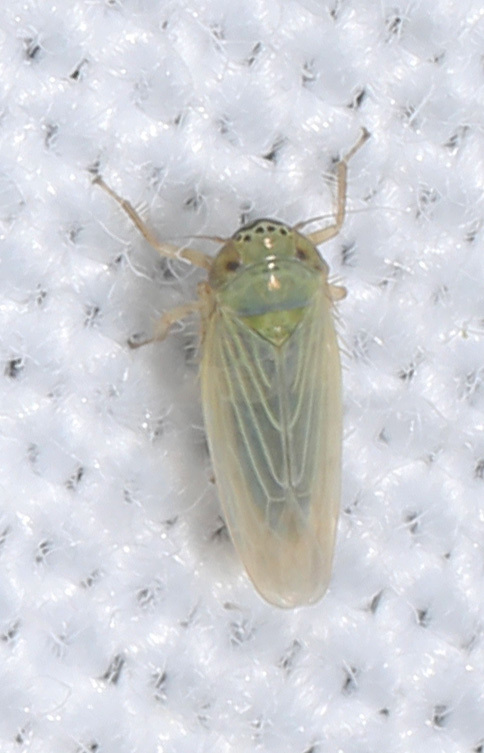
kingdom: Animalia
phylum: Arthropoda
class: Insecta
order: Hemiptera
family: Cicadellidae
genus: Graminella
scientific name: Graminella nigrifrons
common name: Blackfaced leafhopper
